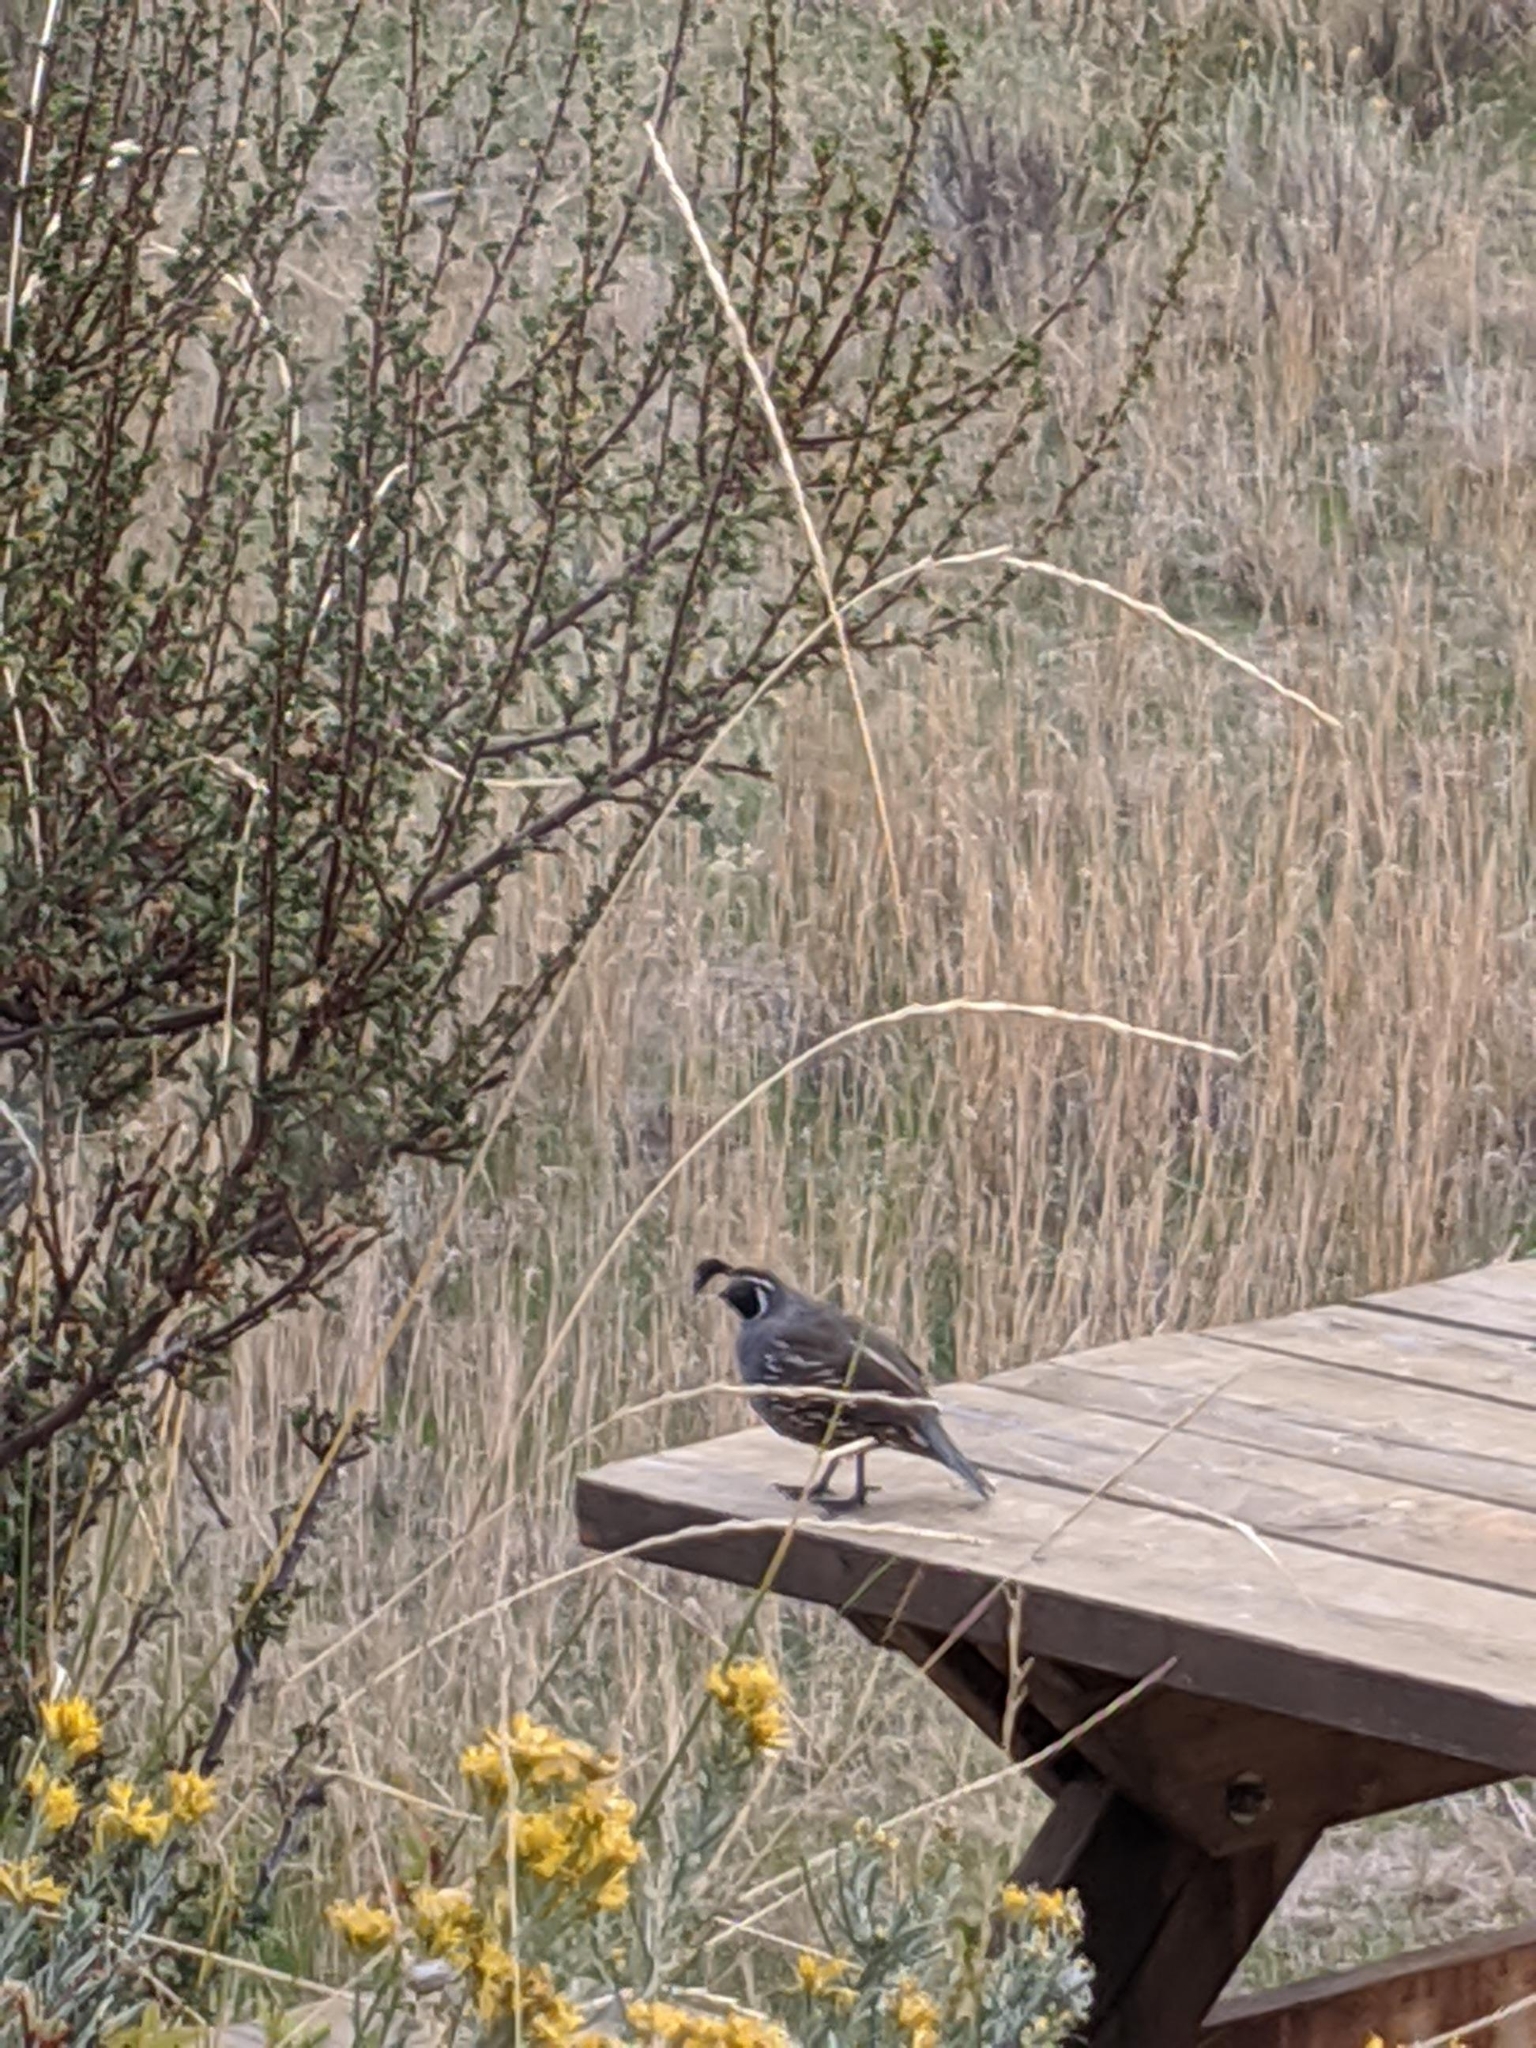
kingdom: Animalia
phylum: Chordata
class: Aves
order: Galliformes
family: Odontophoridae
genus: Callipepla
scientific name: Callipepla californica
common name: California quail
